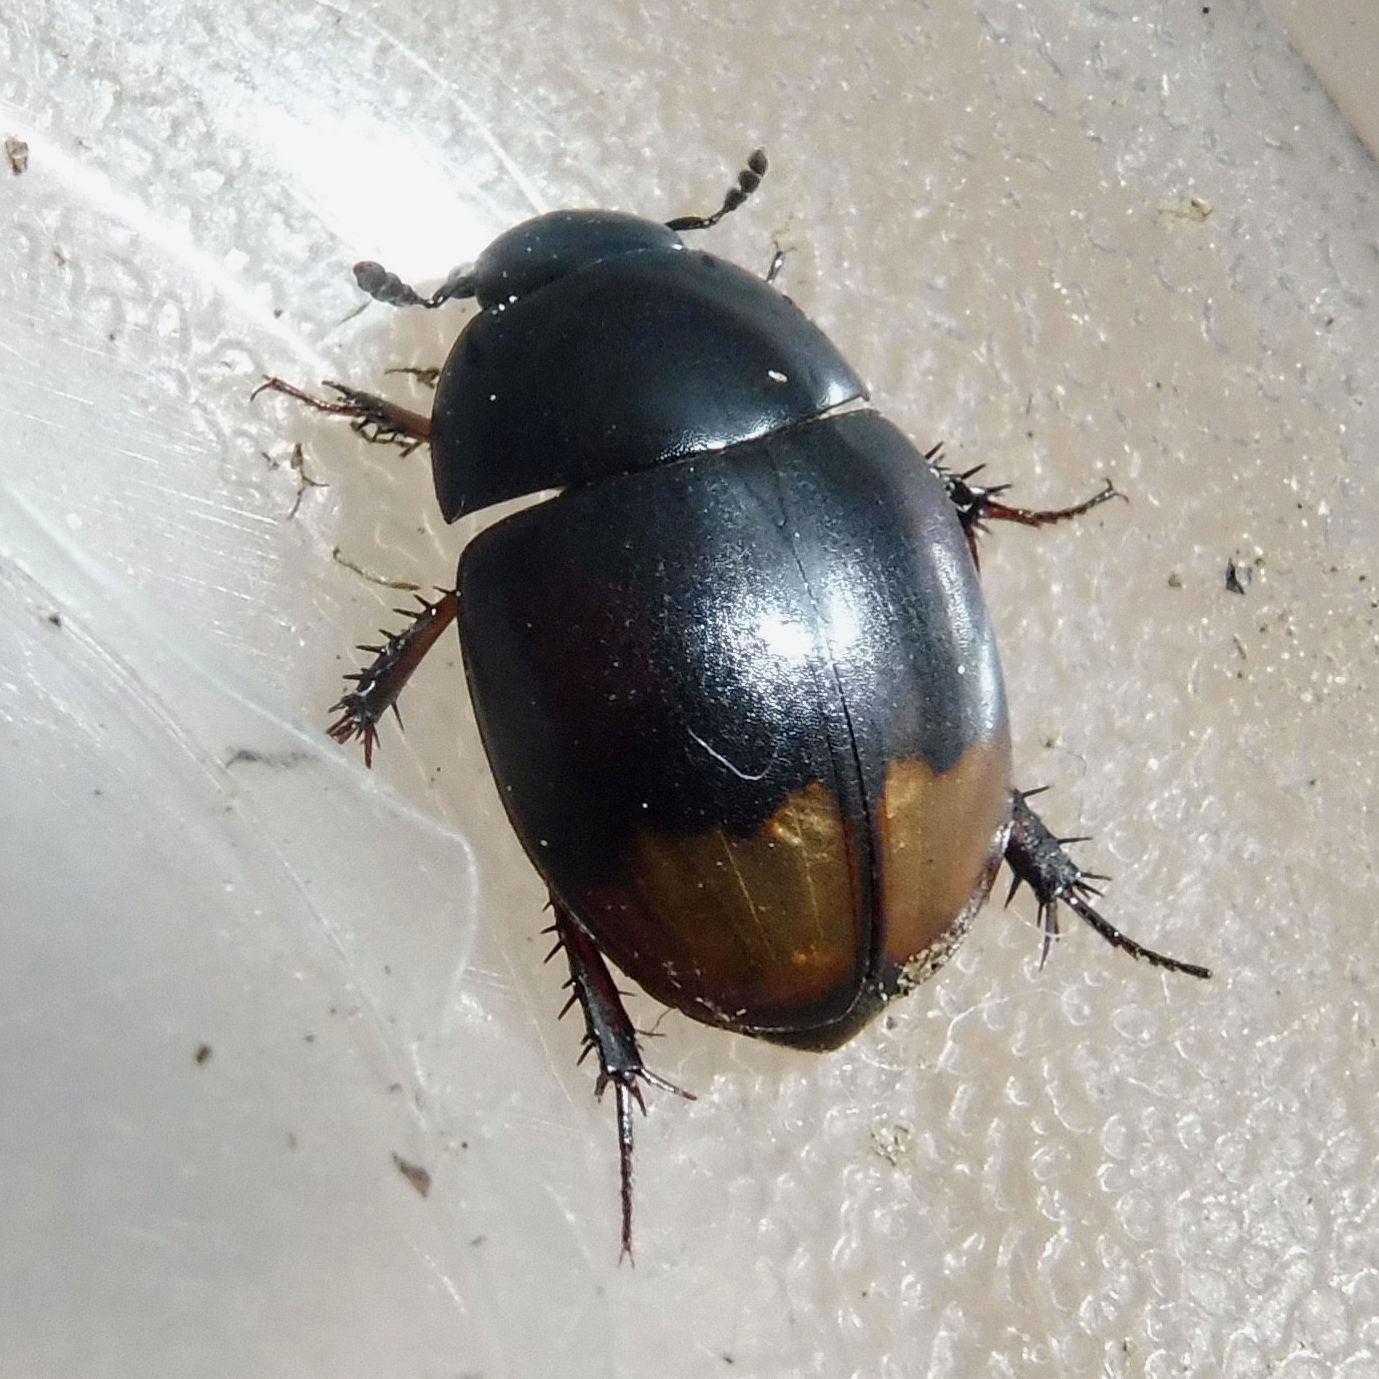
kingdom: Animalia
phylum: Arthropoda
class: Insecta
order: Coleoptera
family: Hydrophilidae
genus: Sphaeridium
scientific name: Sphaeridium lunatum
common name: Water scavenger beetle
